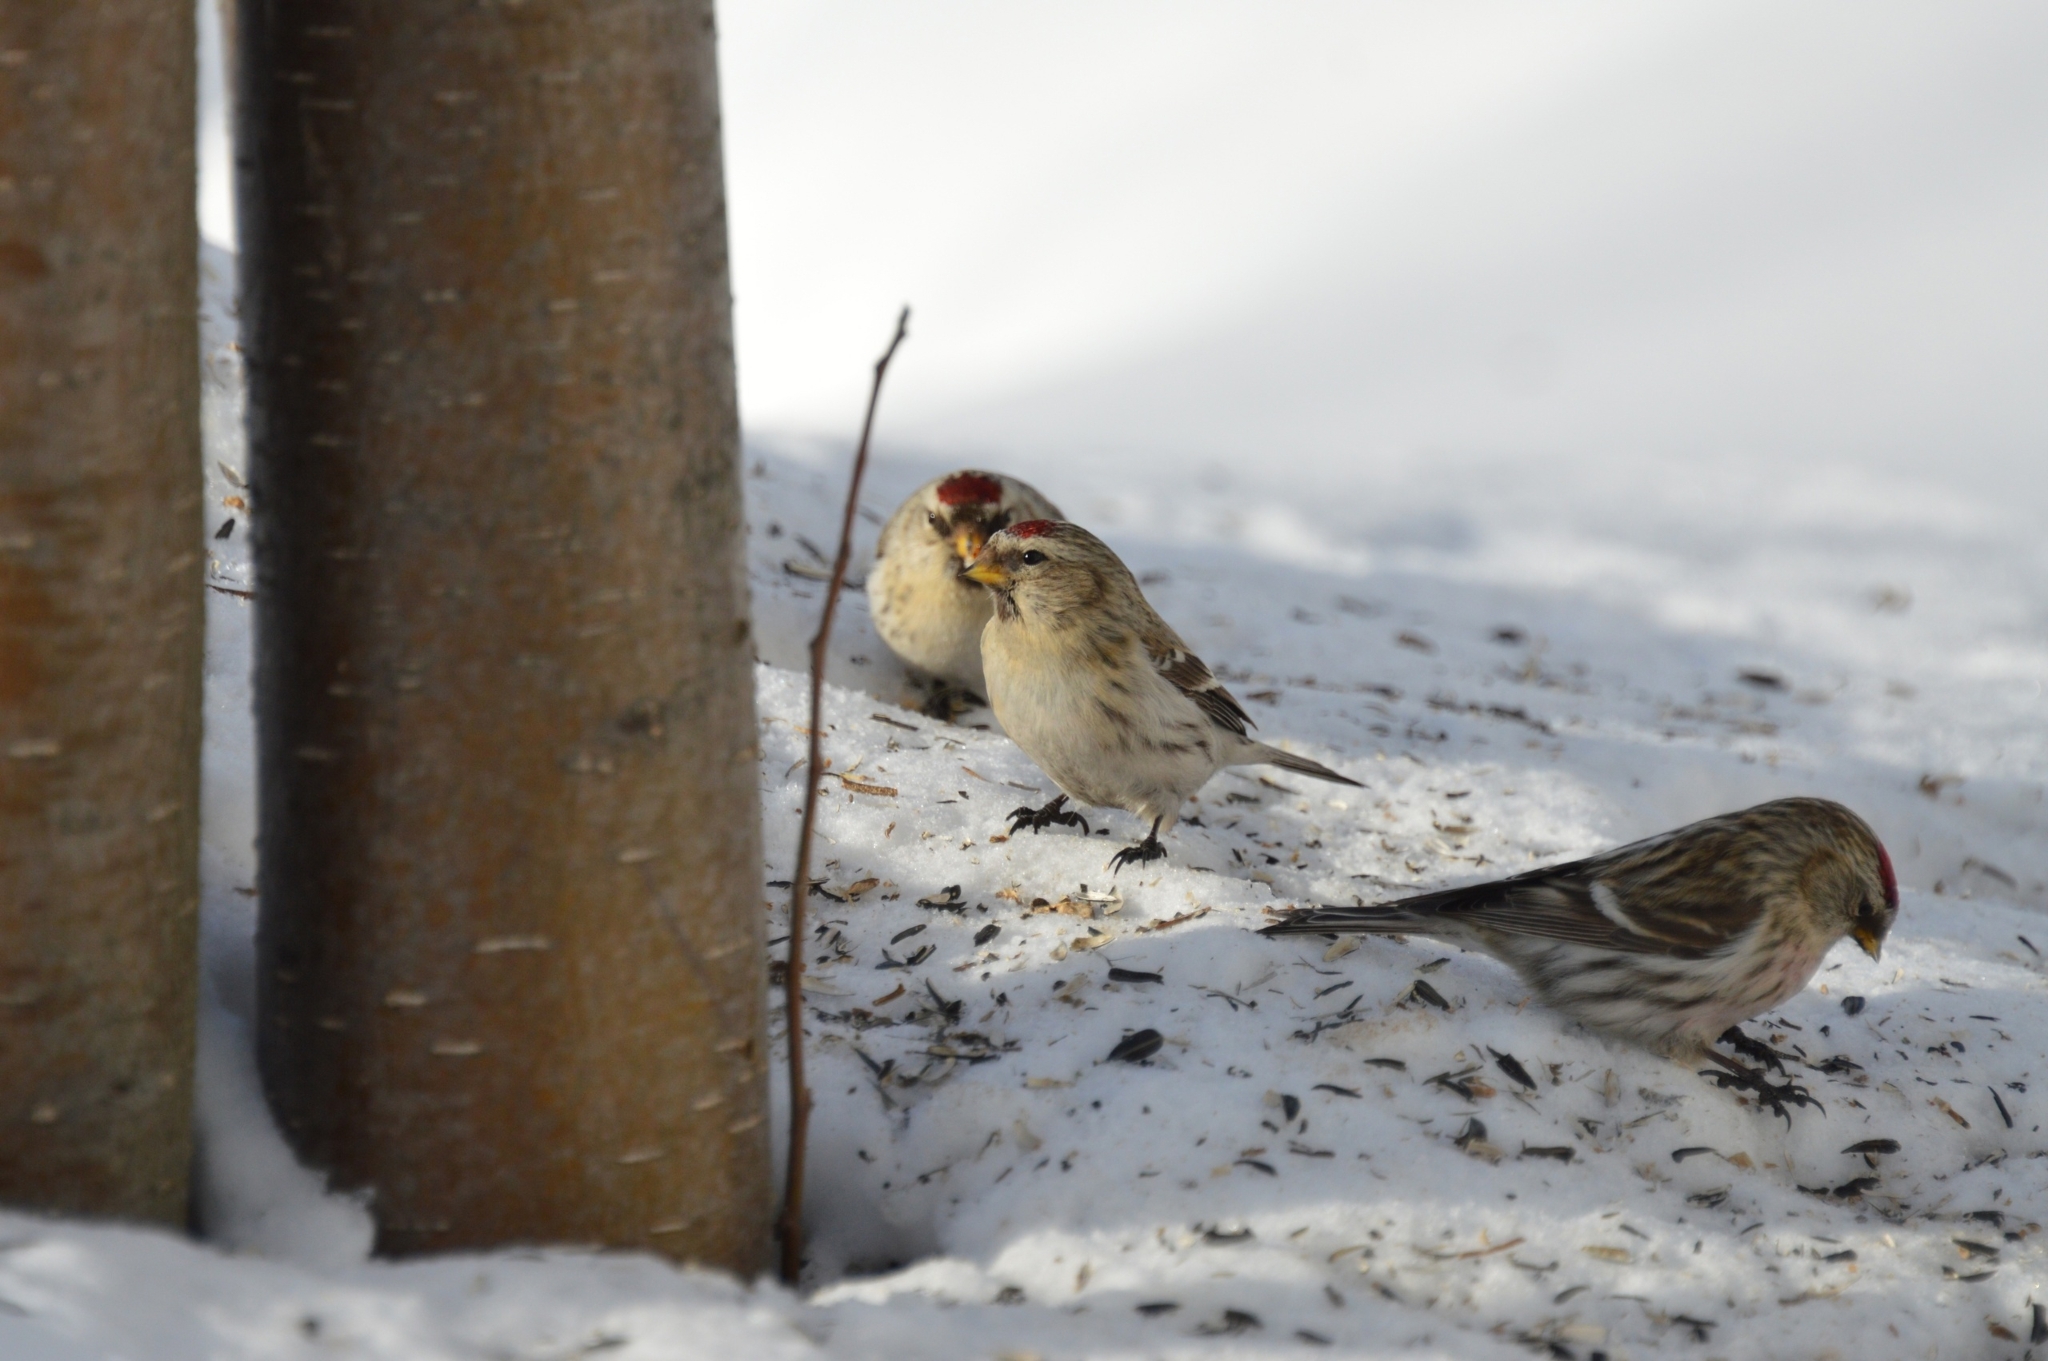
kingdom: Animalia
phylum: Chordata
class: Aves
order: Passeriformes
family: Fringillidae
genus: Acanthis
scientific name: Acanthis flammea
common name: Common redpoll
